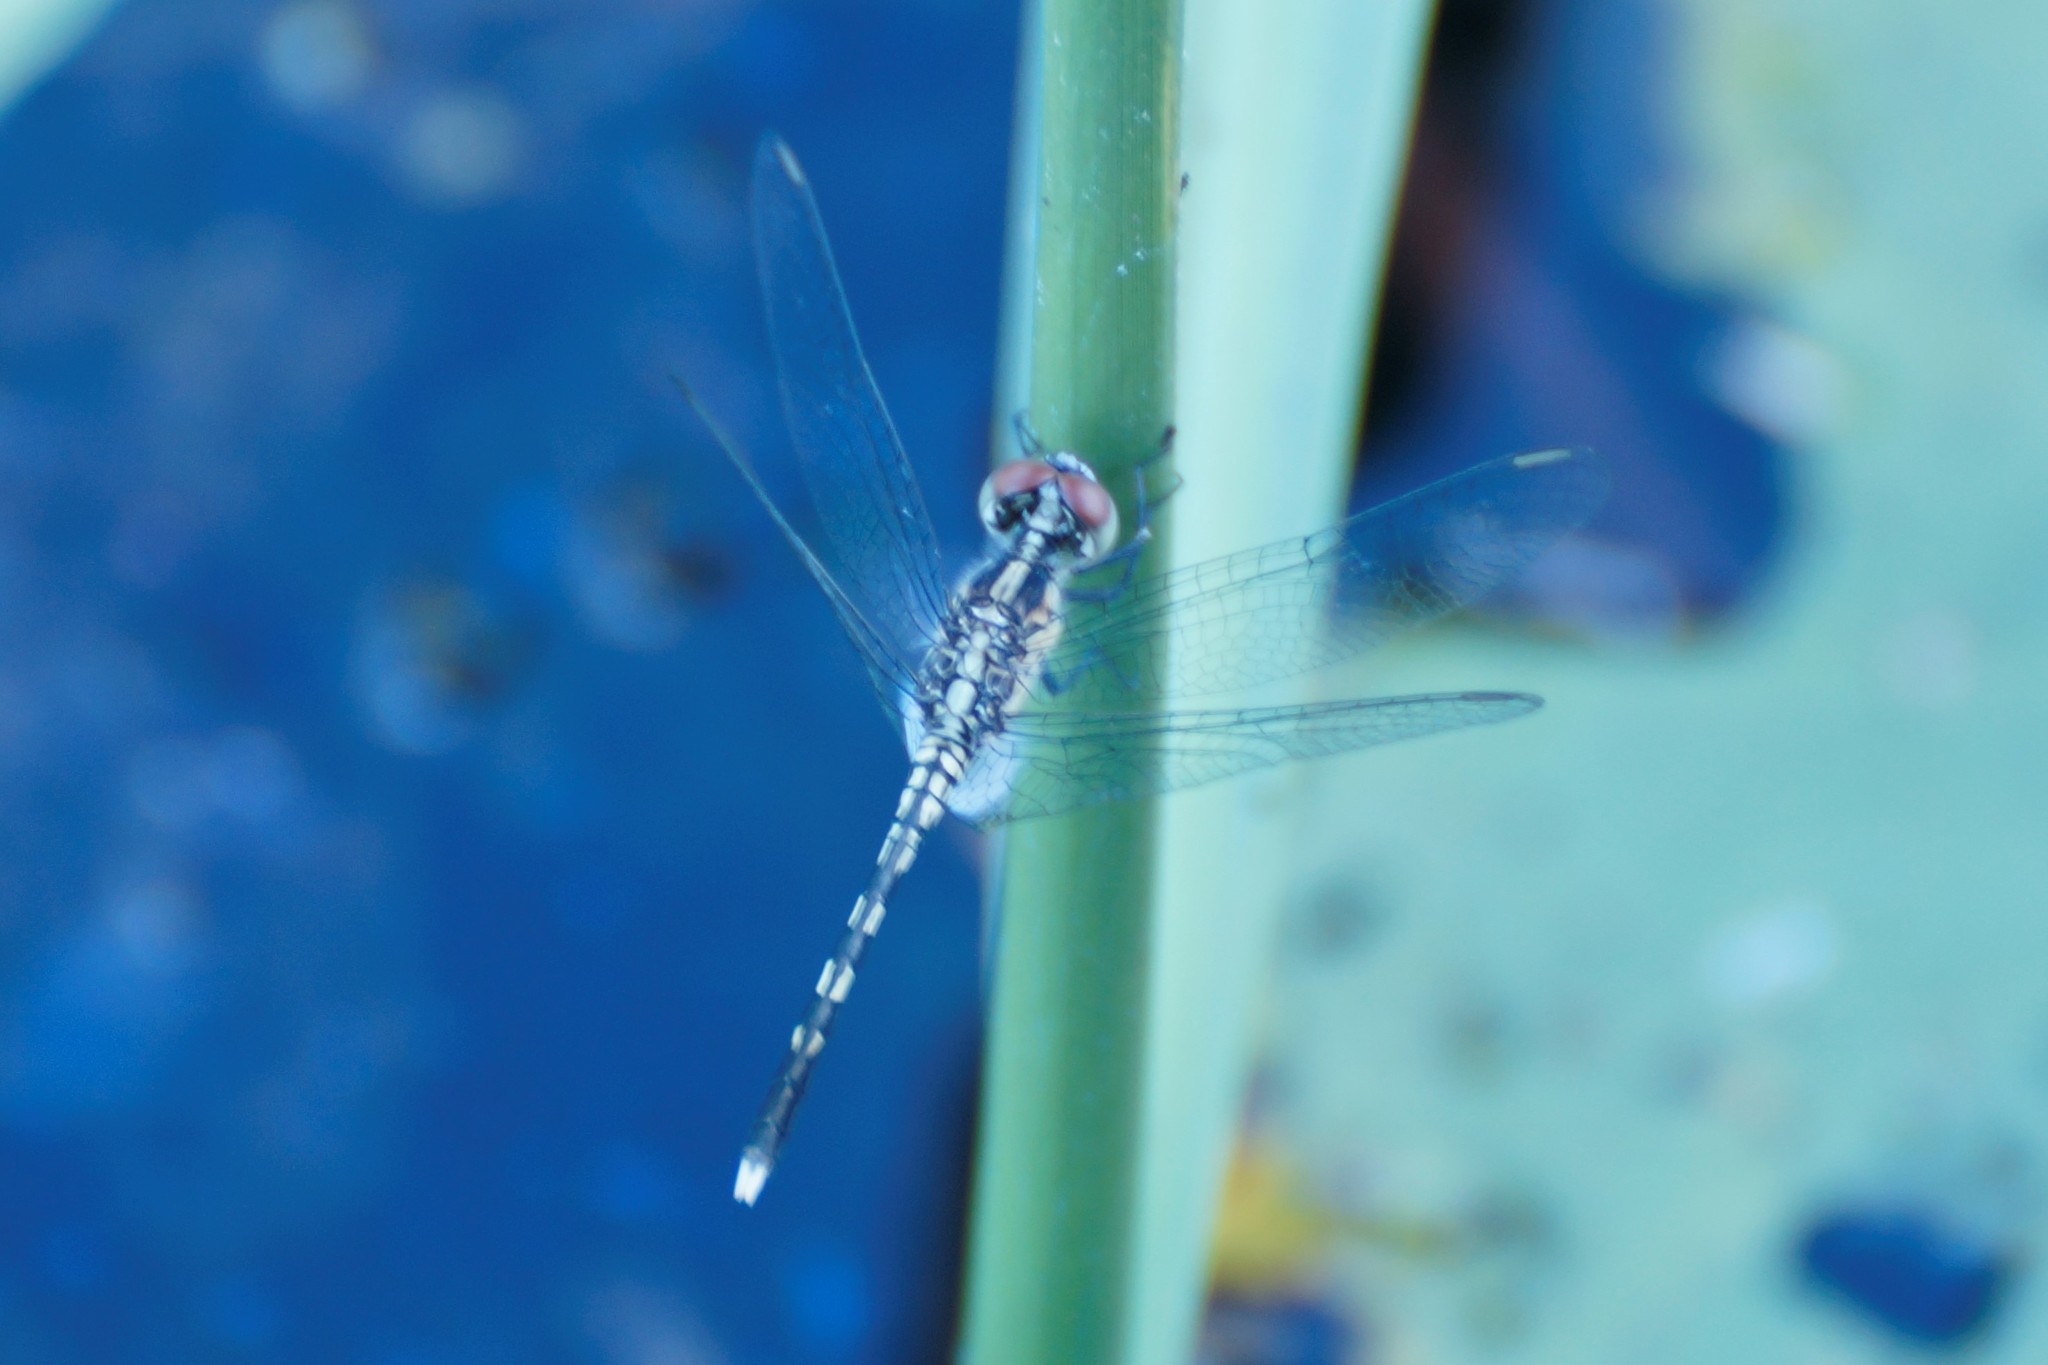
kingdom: Animalia
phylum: Arthropoda
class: Insecta
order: Odonata
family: Libellulidae
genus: Diplacodes
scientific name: Diplacodes trivialis
